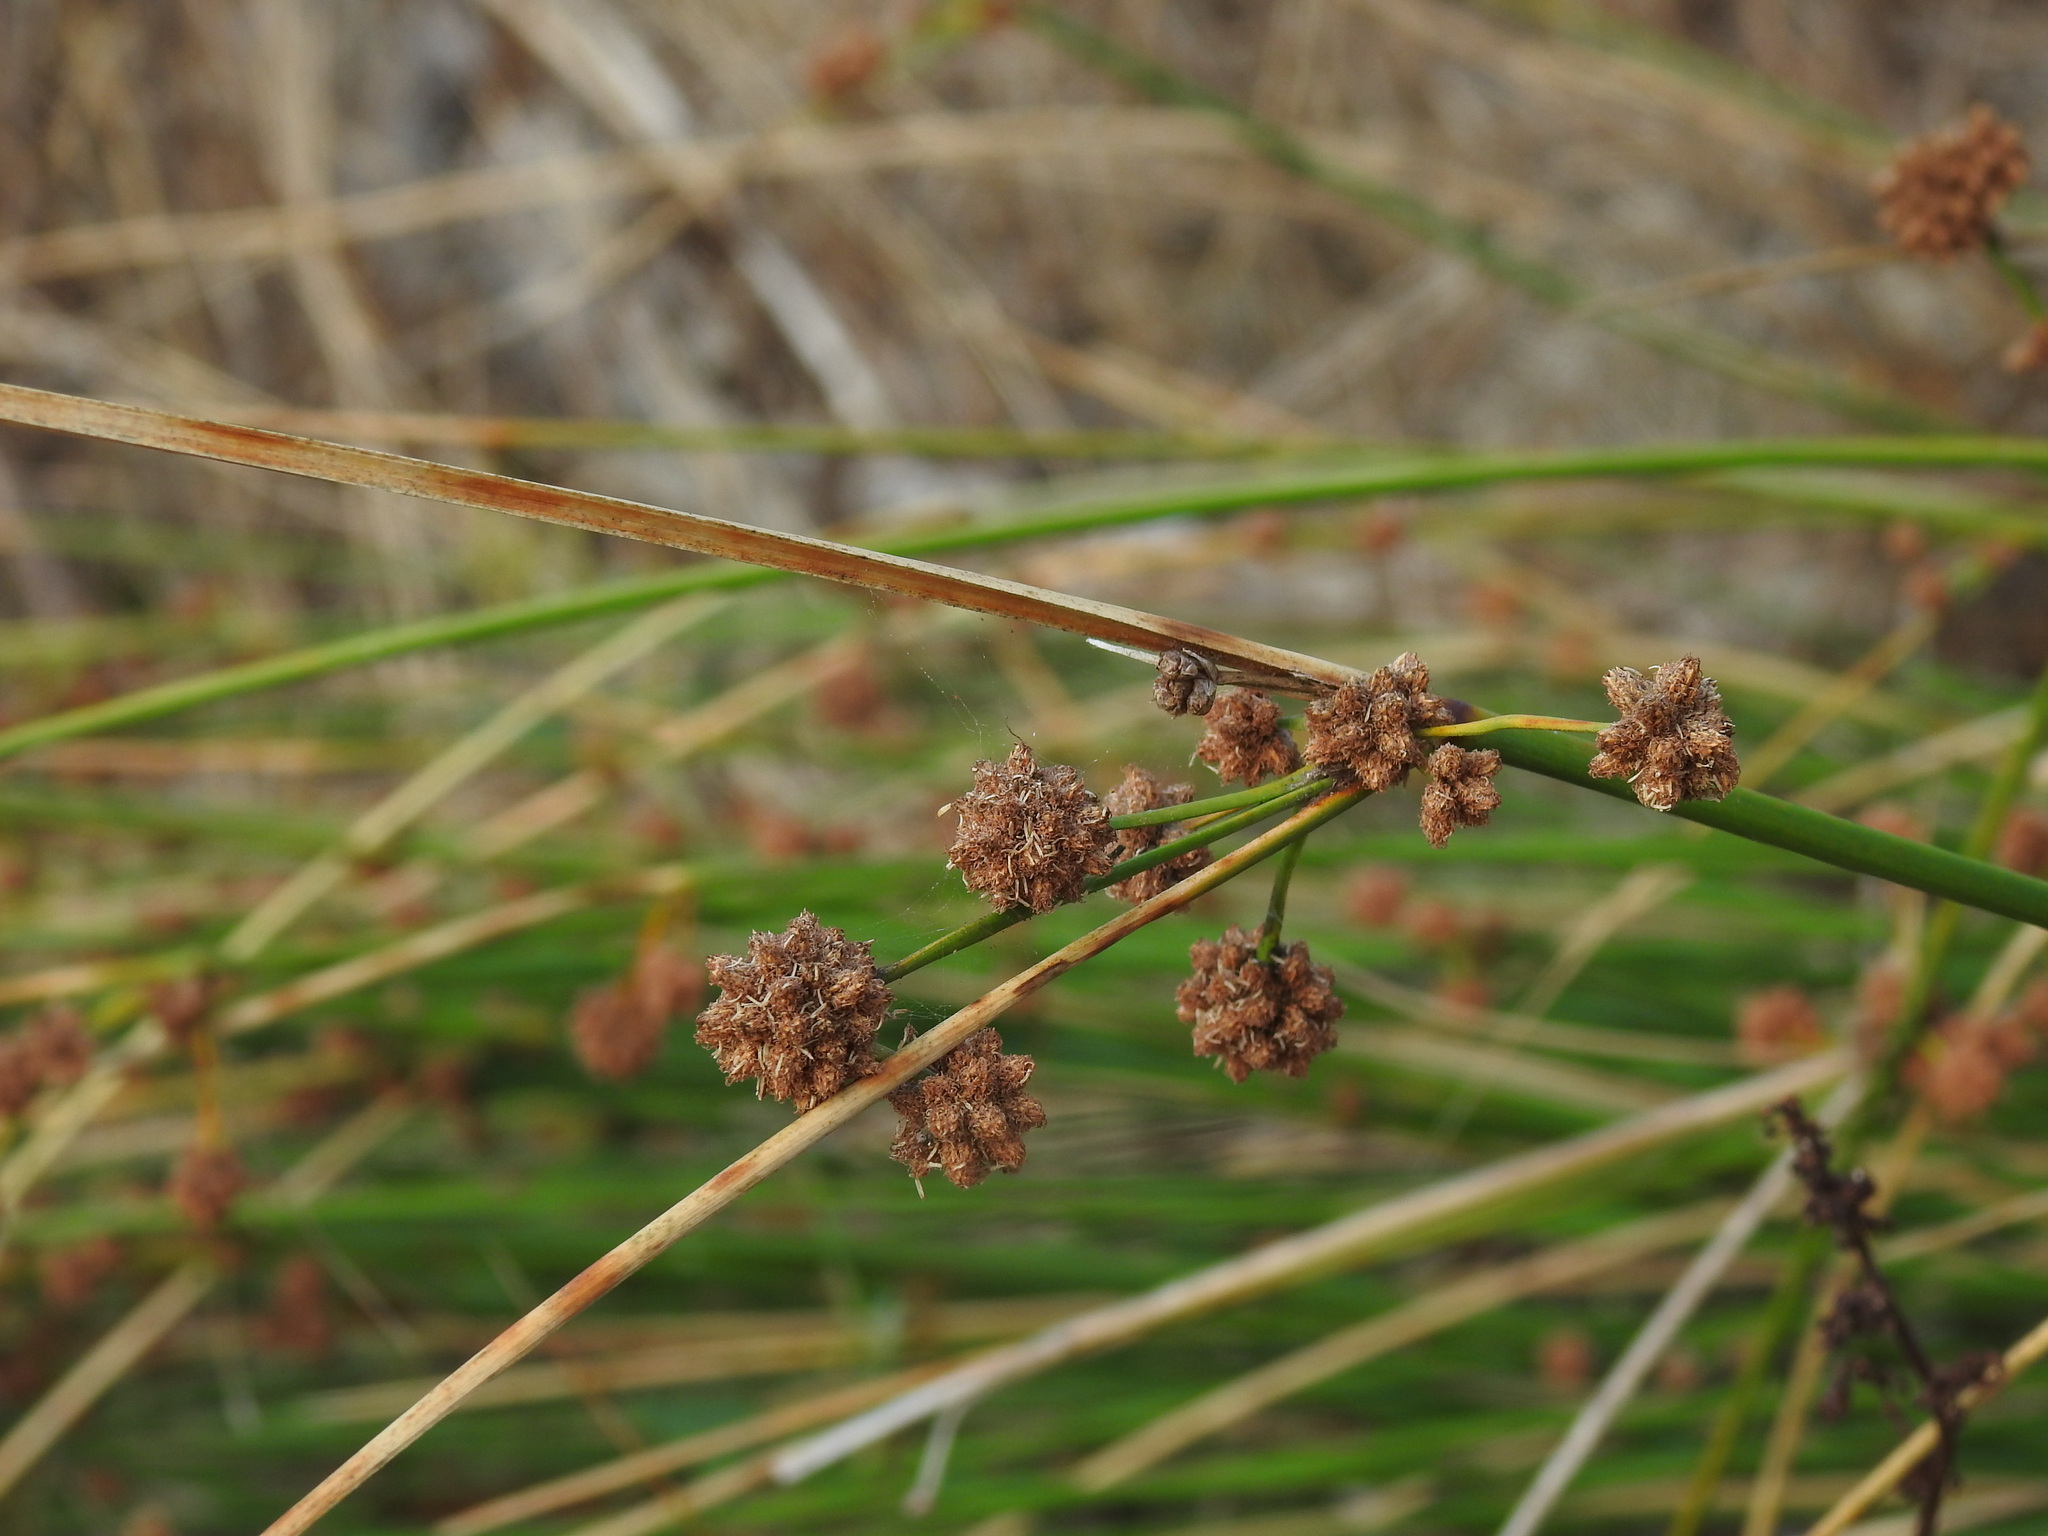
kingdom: Plantae
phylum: Tracheophyta
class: Liliopsida
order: Poales
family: Cyperaceae
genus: Scirpoides
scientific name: Scirpoides holoschoenus
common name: Round-headed club-rush
